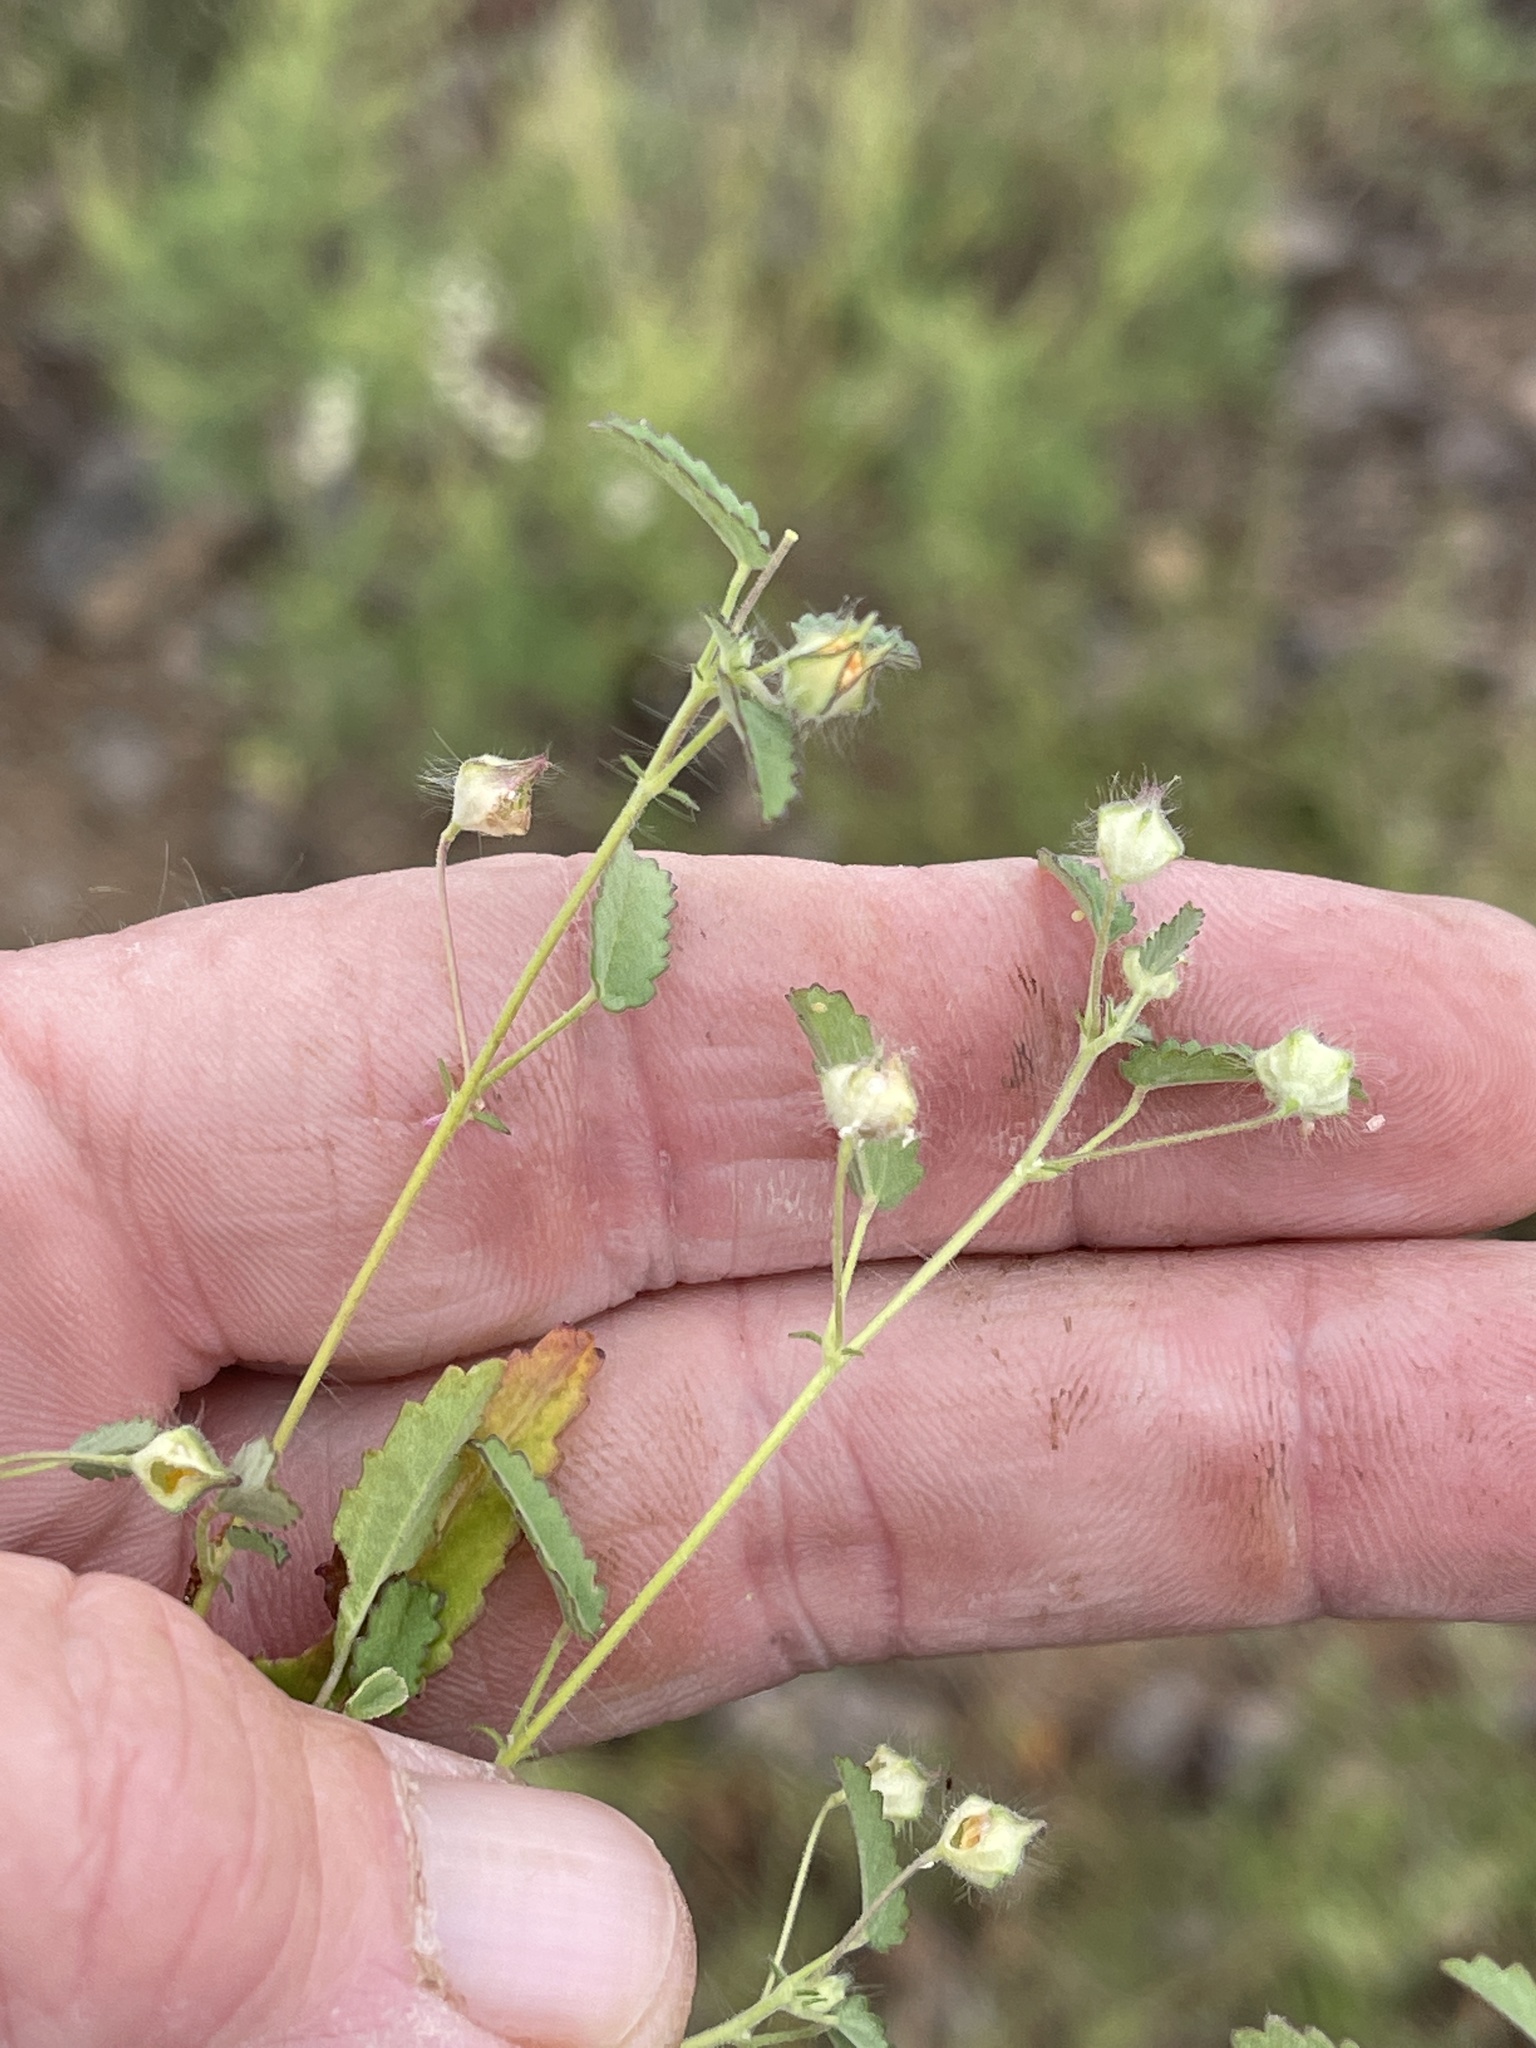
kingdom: Plantae
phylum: Tracheophyta
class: Magnoliopsida
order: Malvales
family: Malvaceae
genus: Sida
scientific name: Sida abutilifolia
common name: Spreading fanpetals
